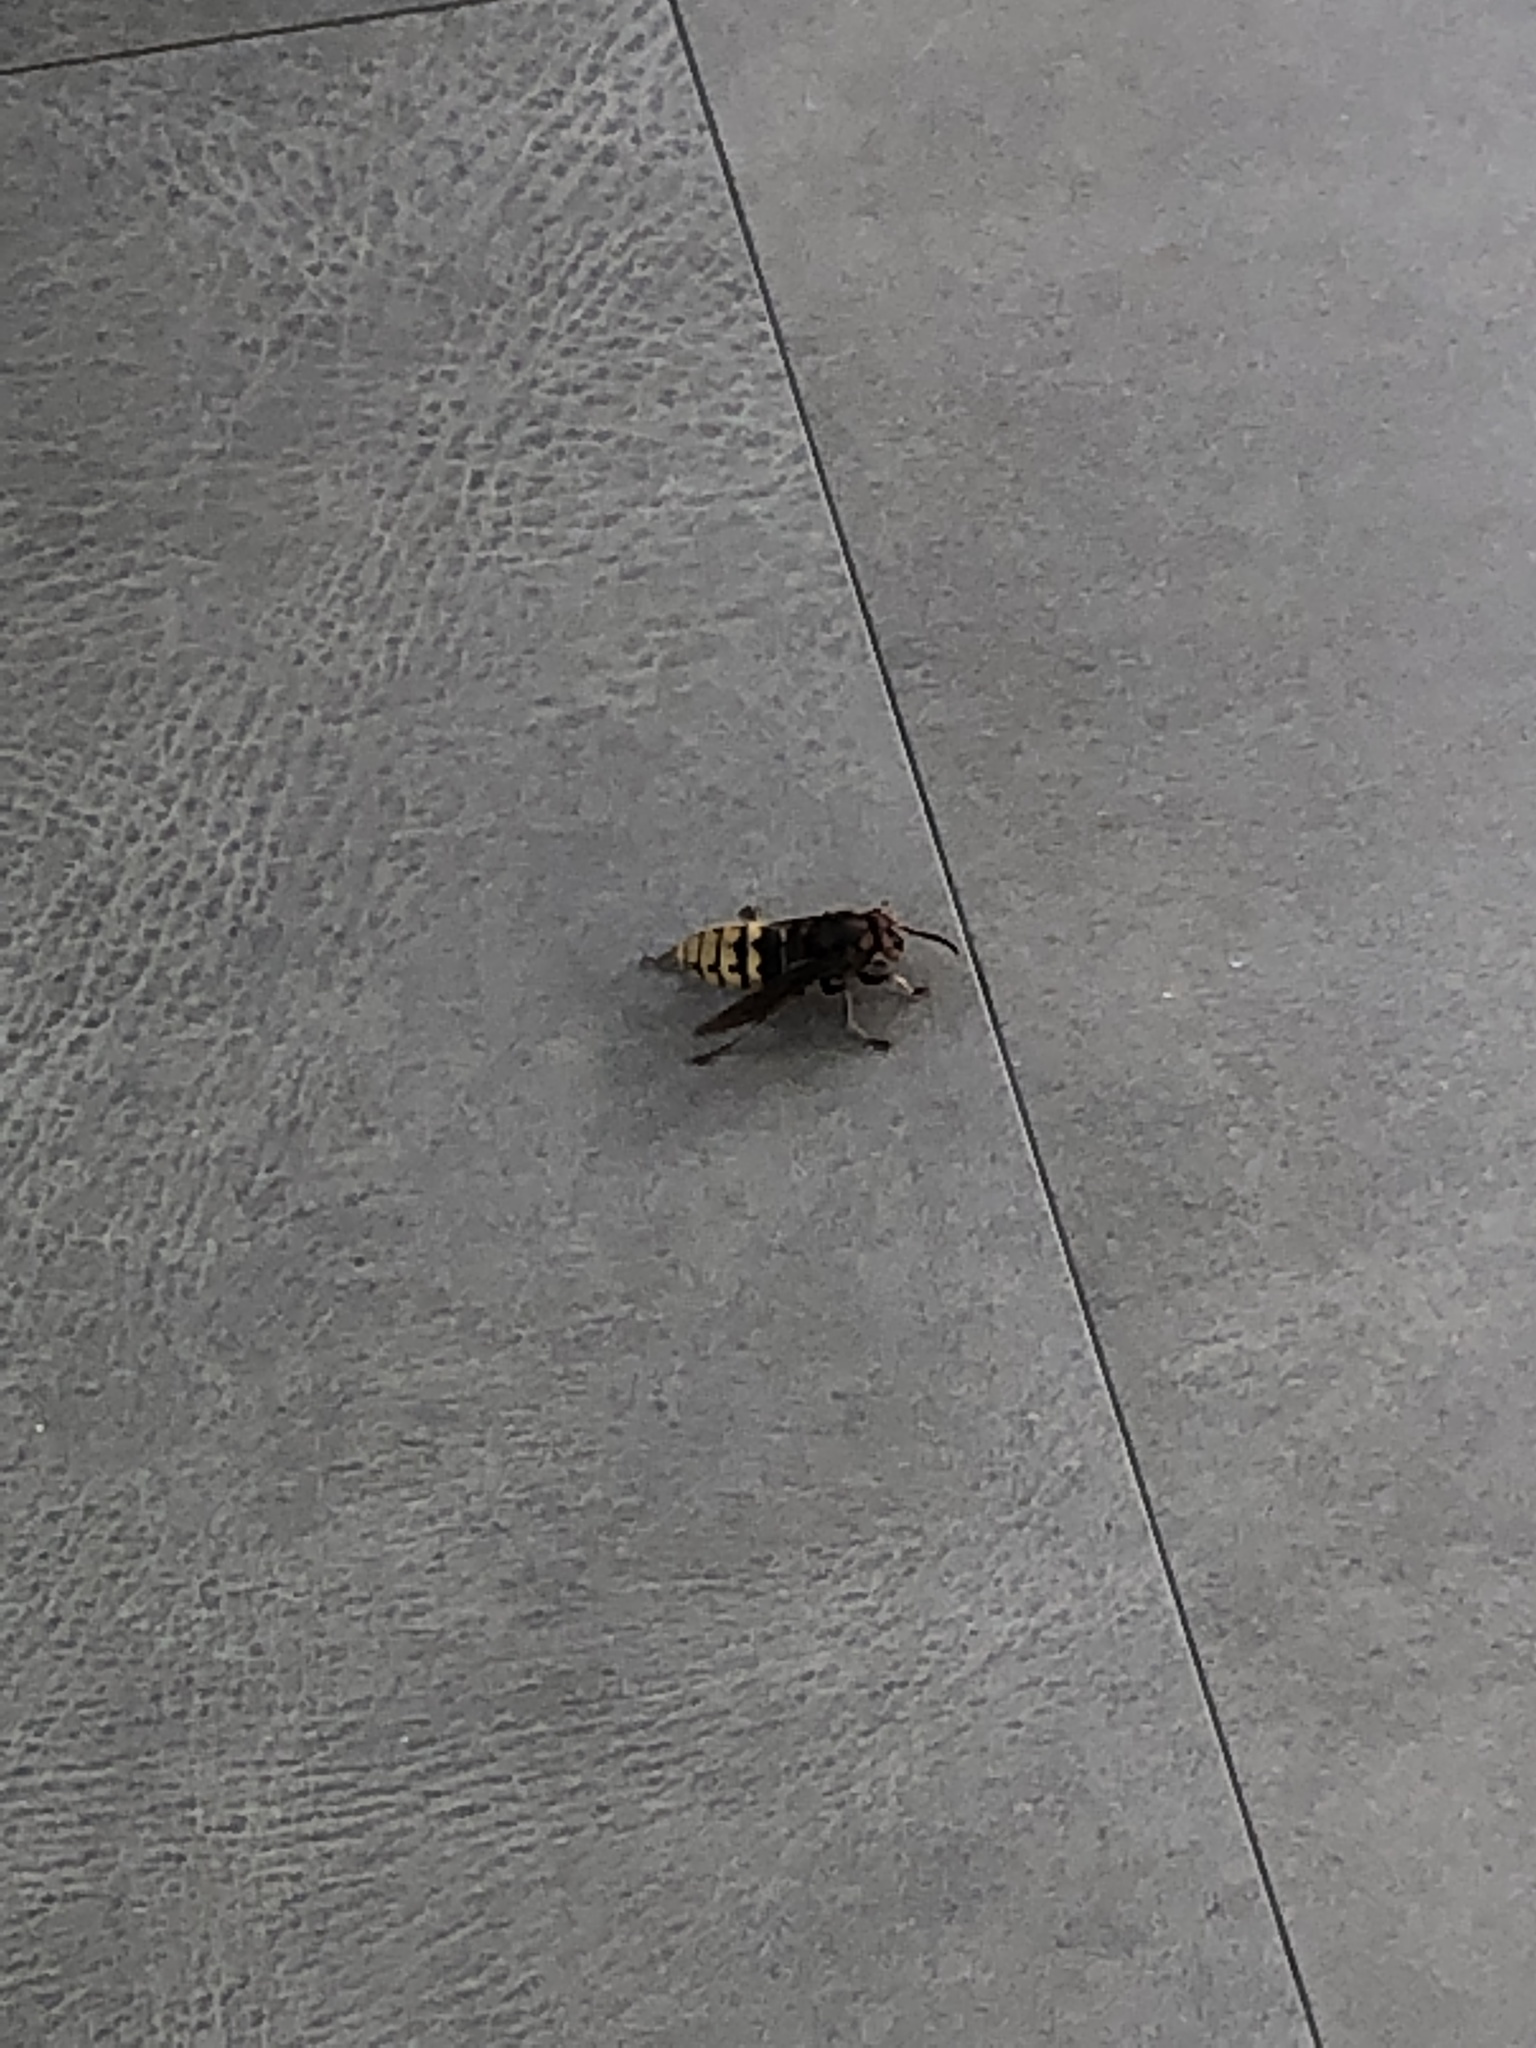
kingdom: Animalia
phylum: Arthropoda
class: Insecta
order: Hymenoptera
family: Vespidae
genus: Vespa
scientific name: Vespa crabro
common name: Hornet
